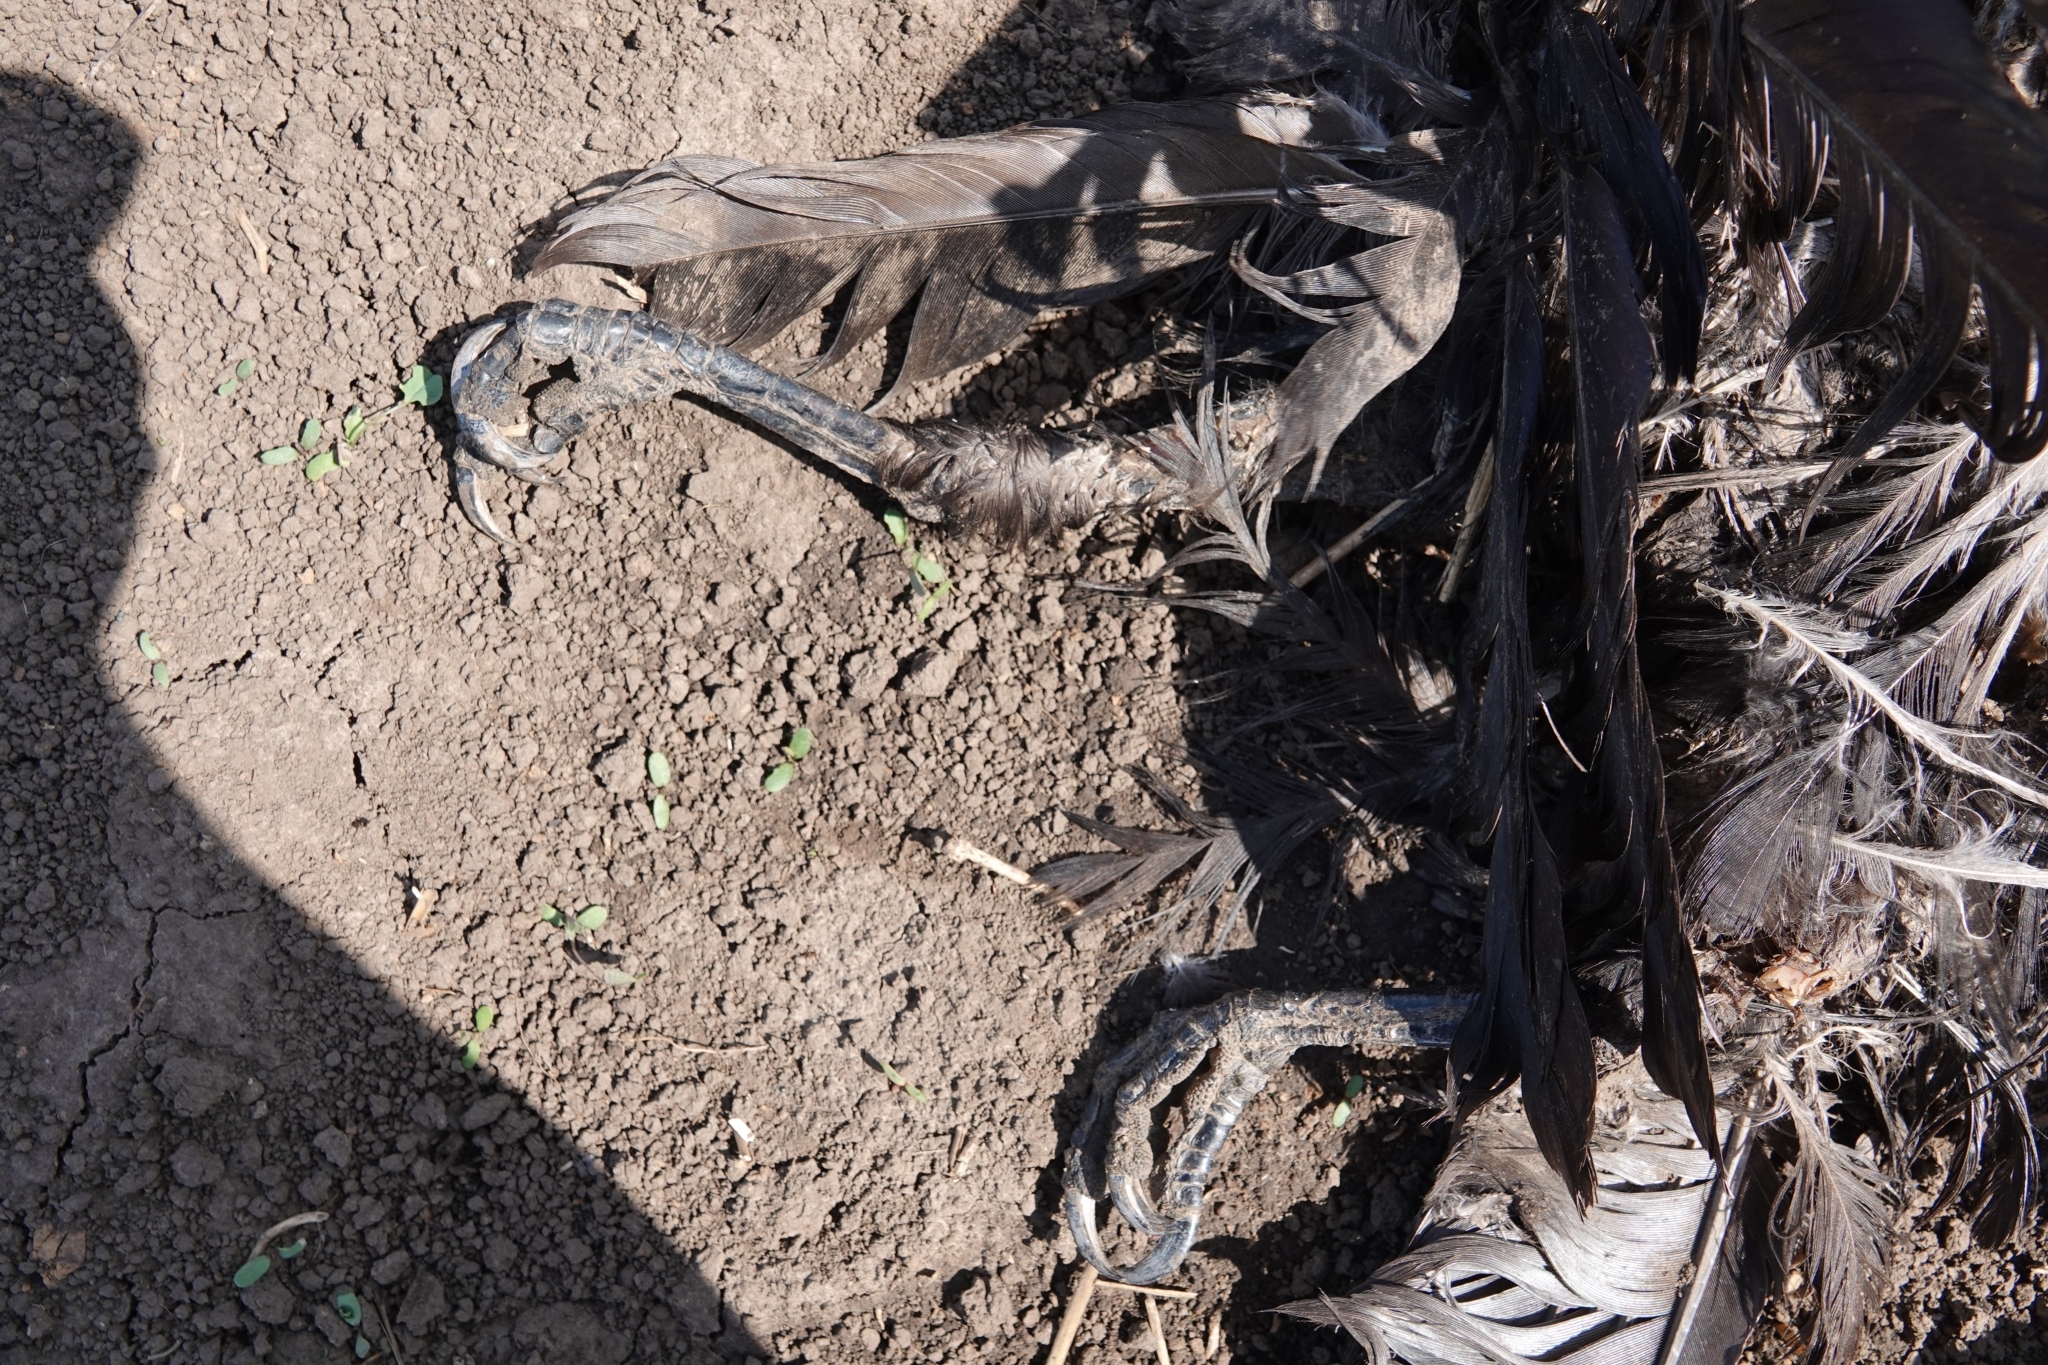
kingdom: Animalia
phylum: Chordata
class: Aves
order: Passeriformes
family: Corvidae
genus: Corvus
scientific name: Corvus corax
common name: Common raven
